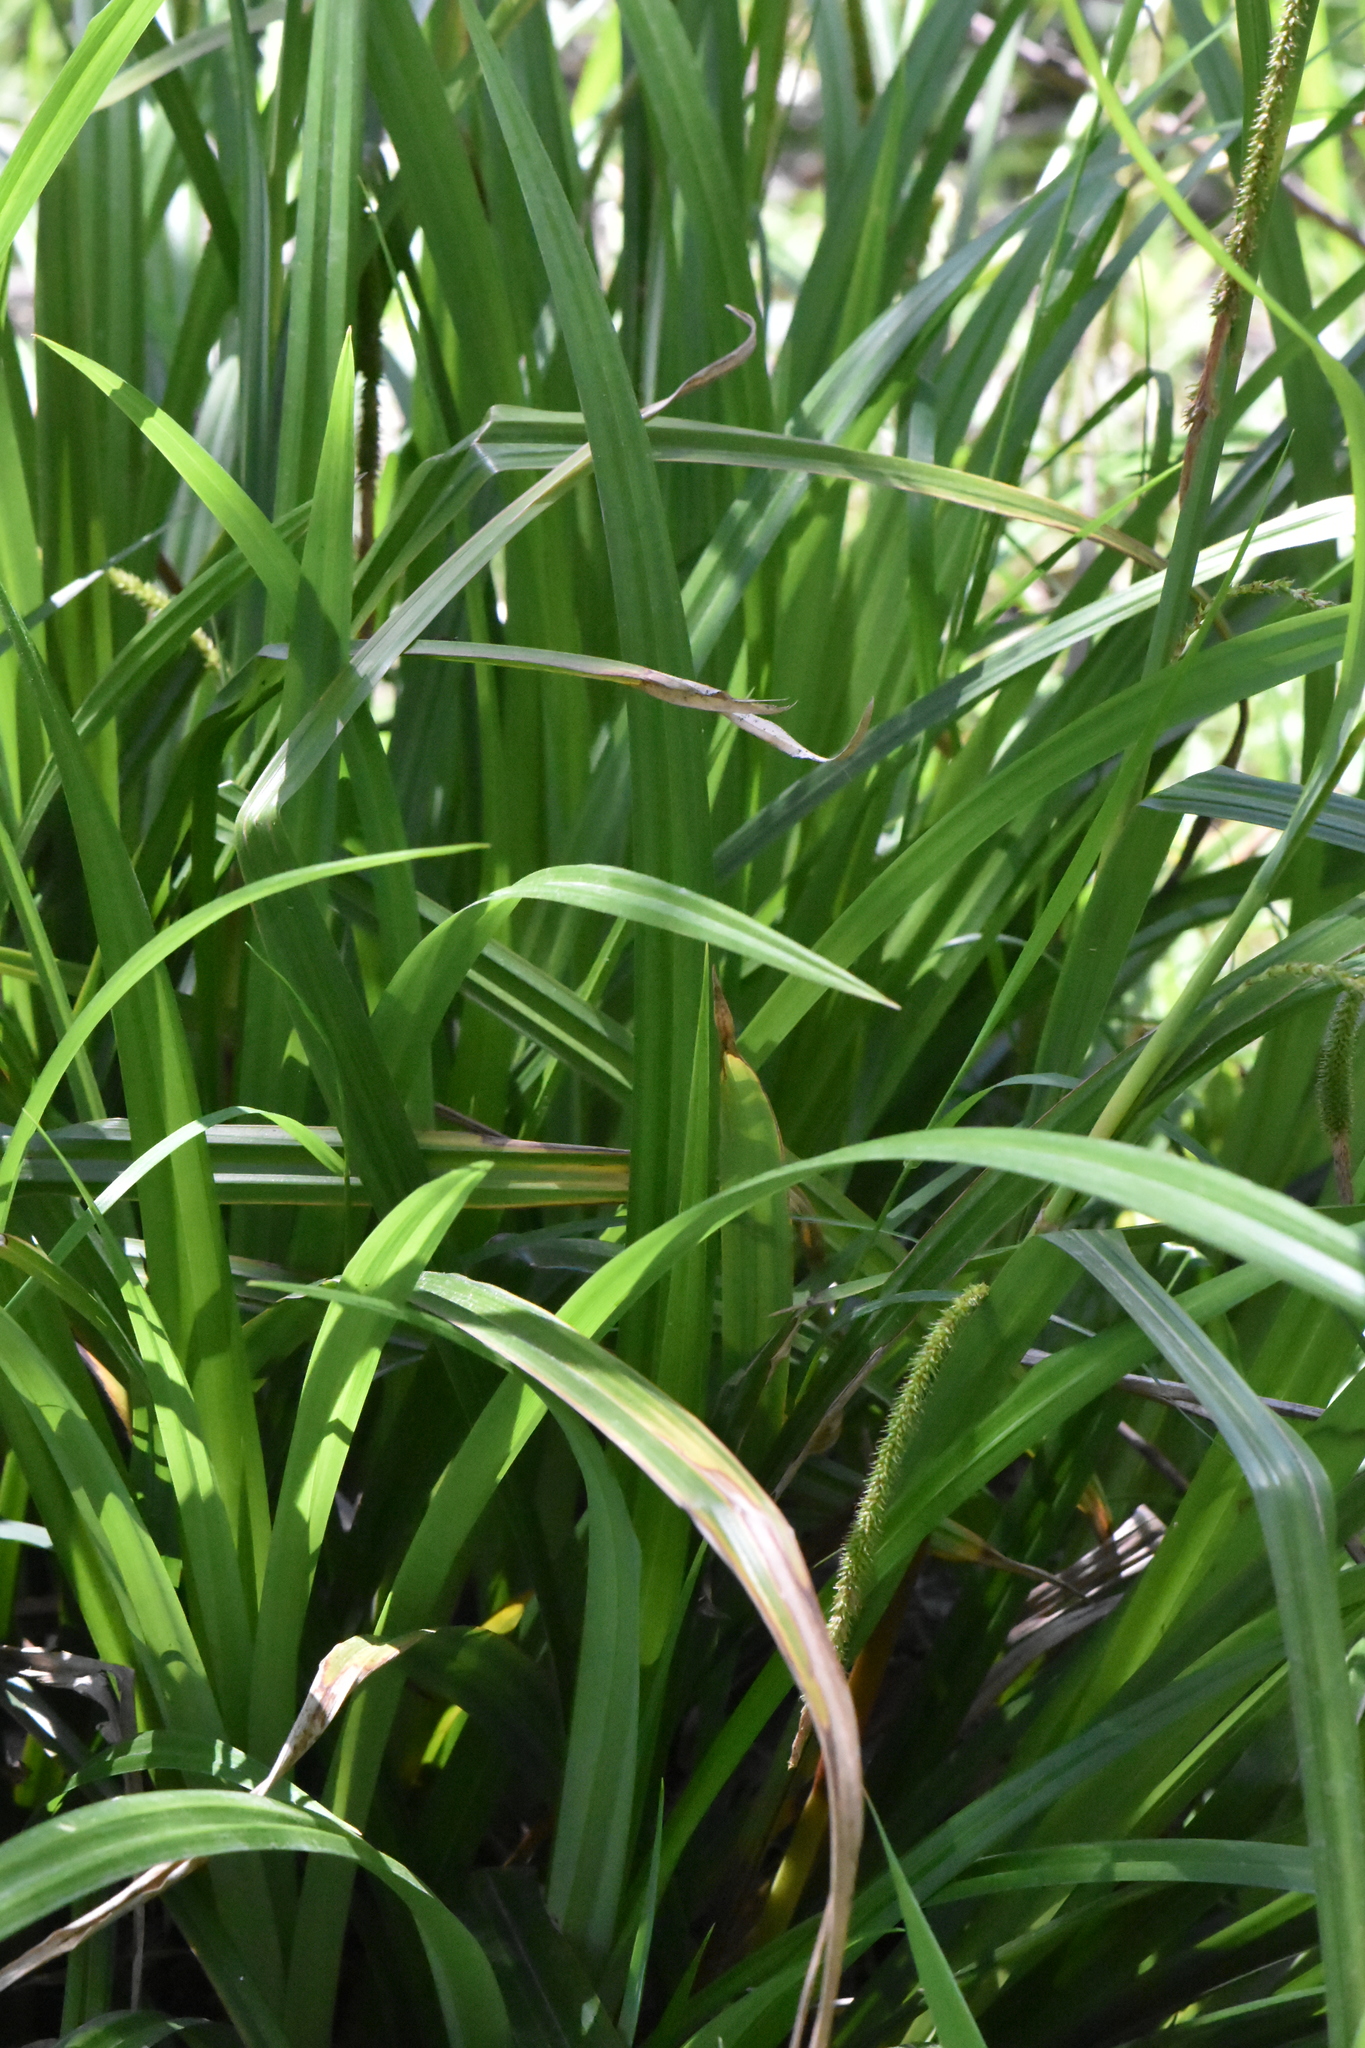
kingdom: Plantae
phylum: Tracheophyta
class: Liliopsida
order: Poales
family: Cyperaceae
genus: Carex
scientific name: Carex pendula
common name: Pendulous sedge
